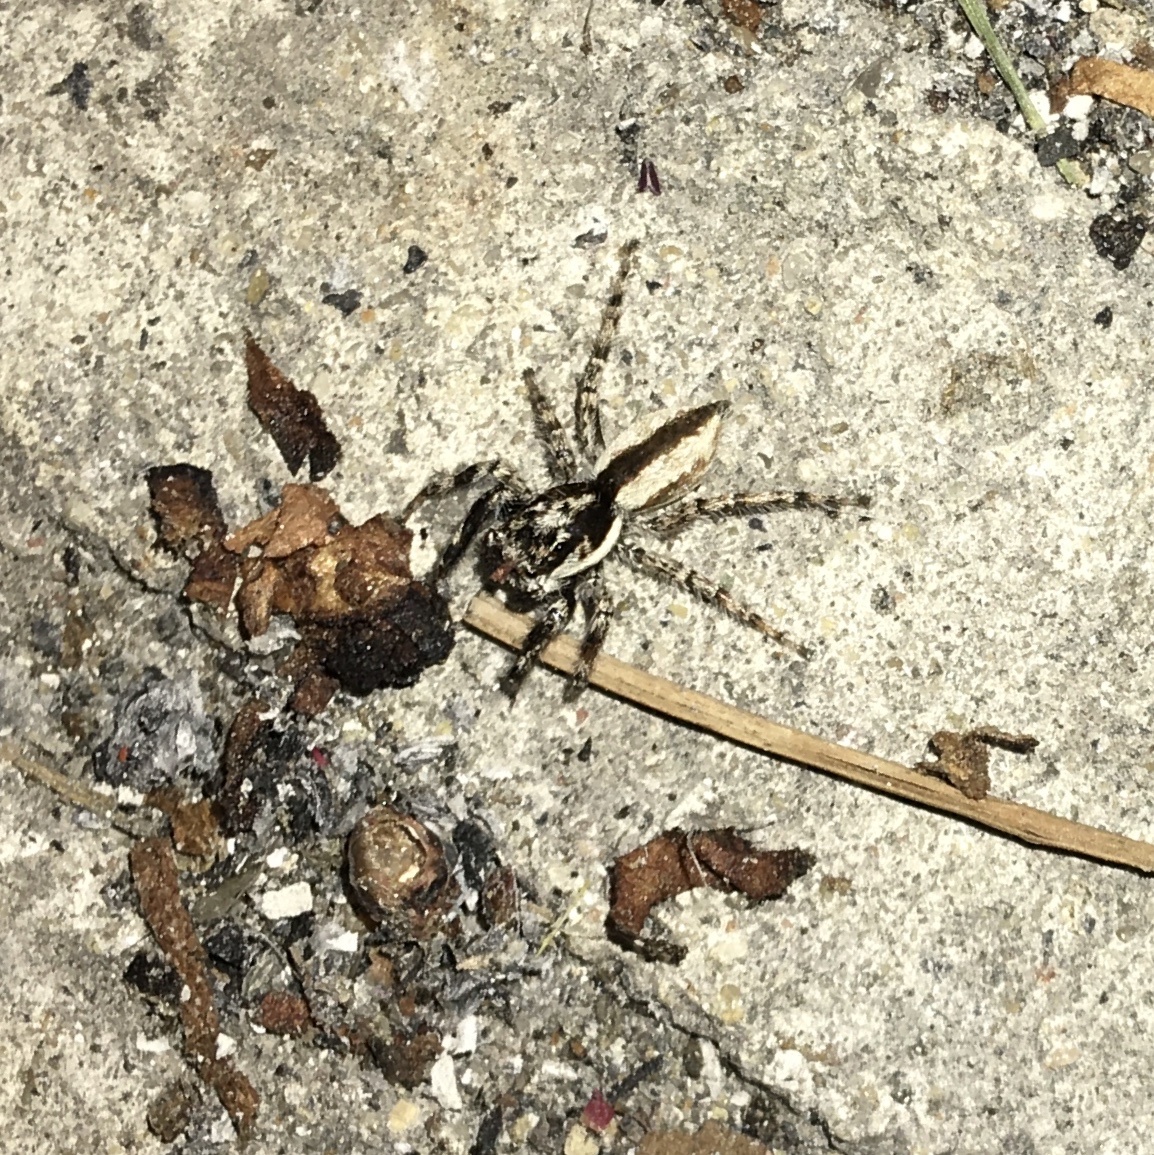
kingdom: Animalia
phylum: Arthropoda
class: Arachnida
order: Araneae
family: Salticidae
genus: Menemerus
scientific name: Menemerus bivittatus
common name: Gray wall jumper
